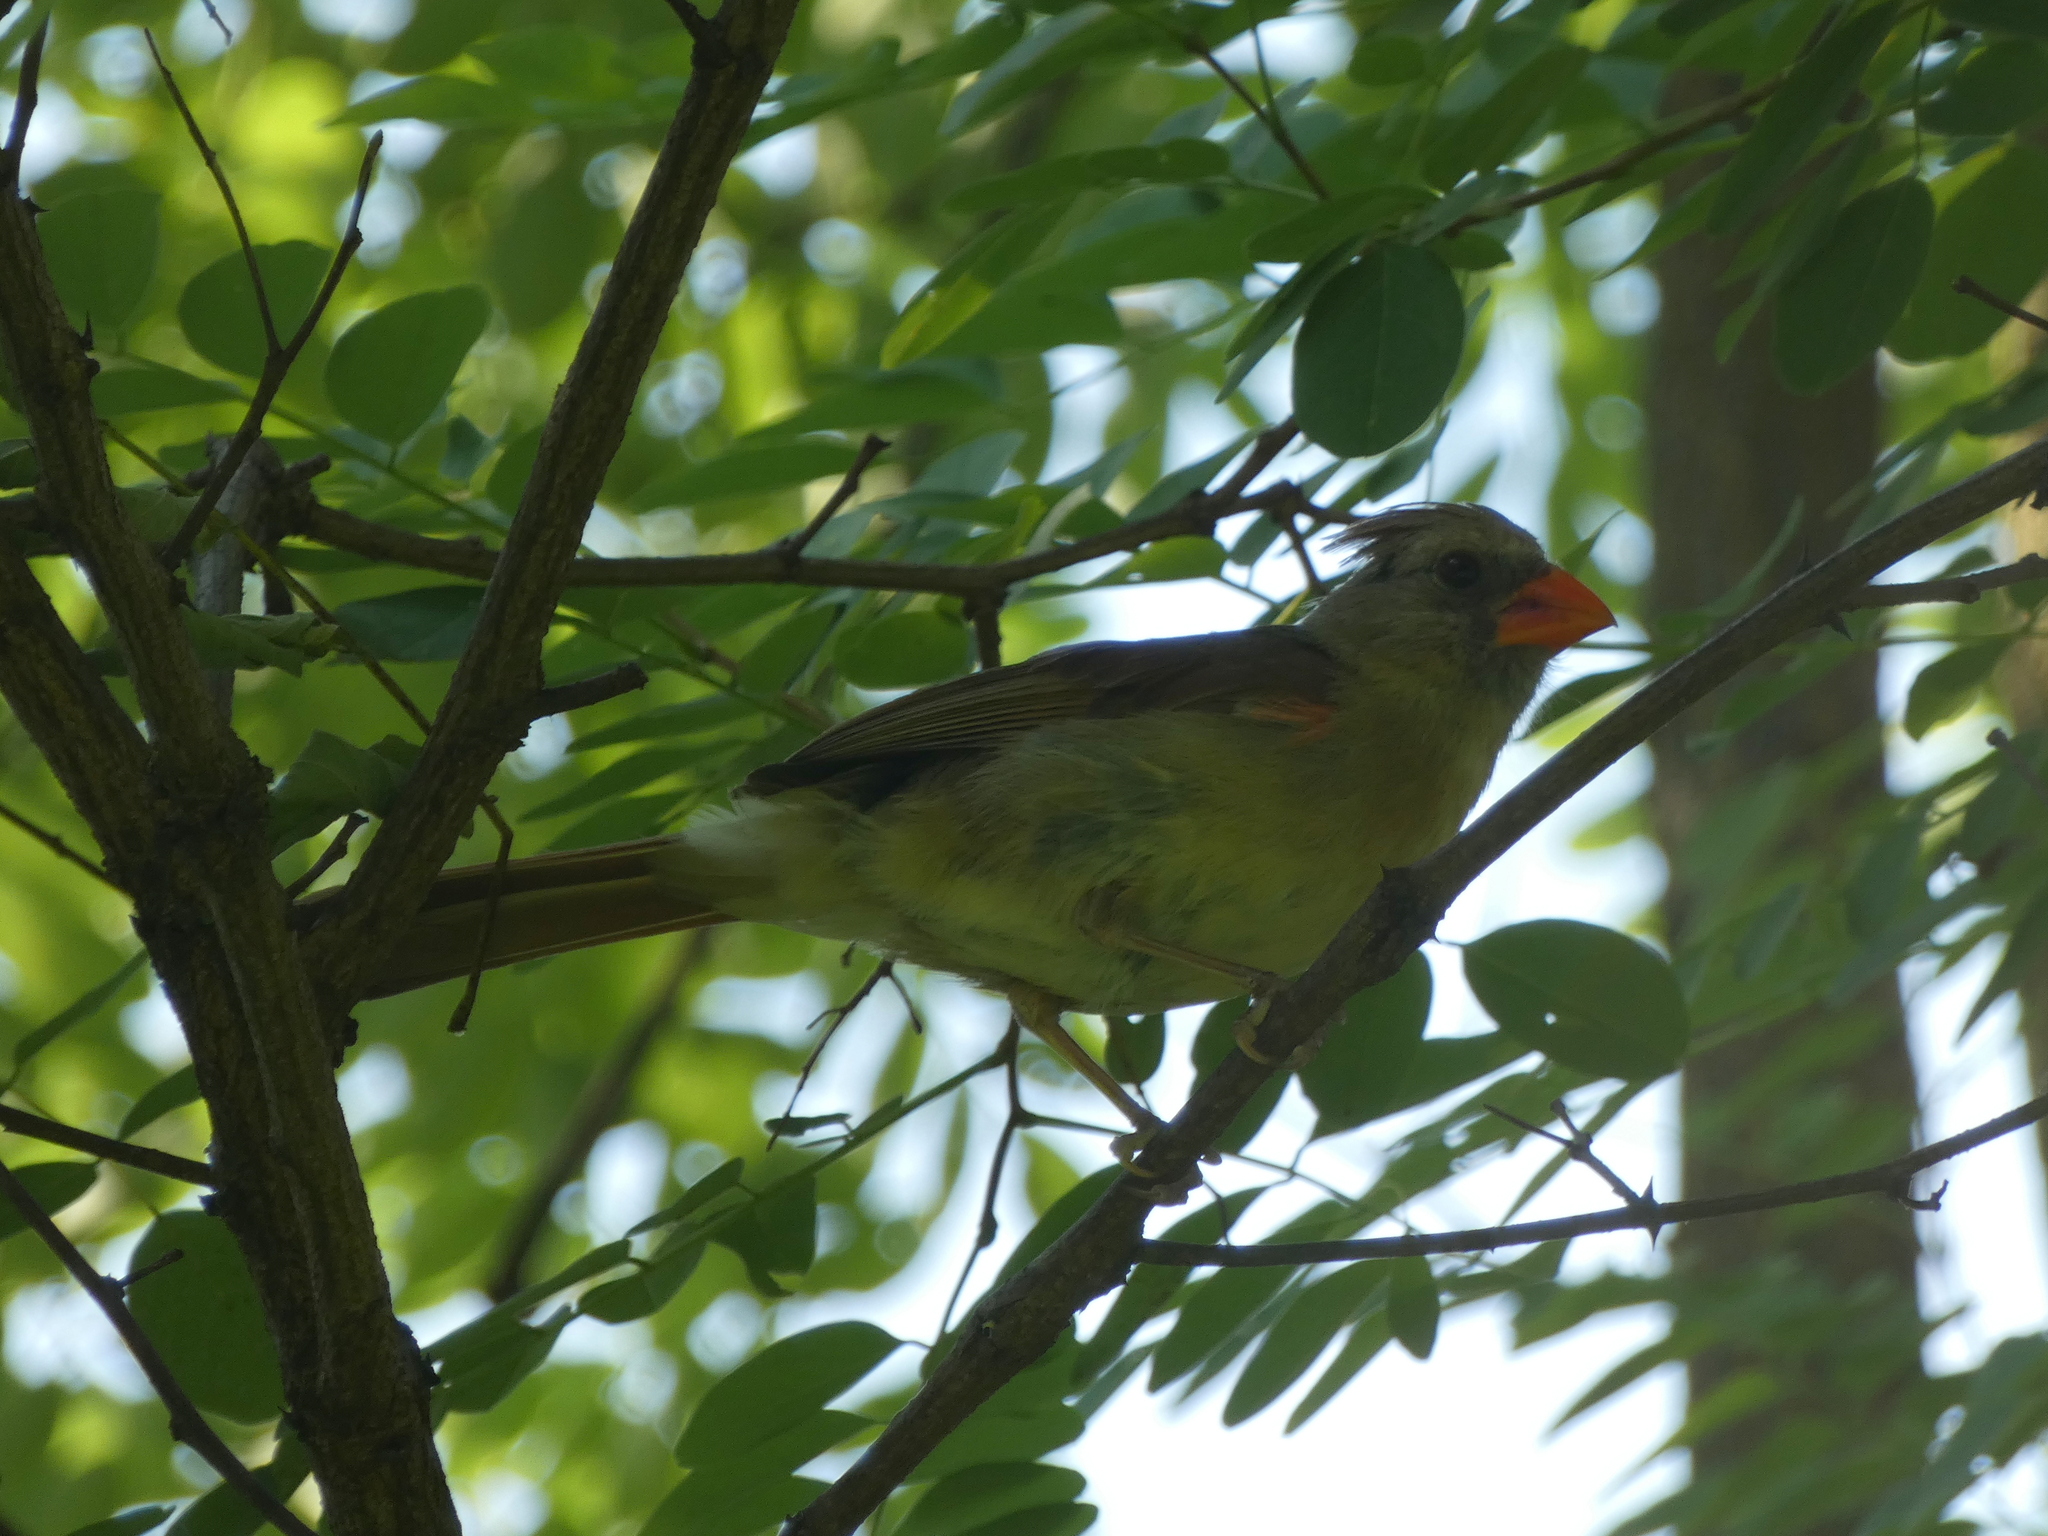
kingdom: Animalia
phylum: Chordata
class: Aves
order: Passeriformes
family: Cardinalidae
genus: Cardinalis
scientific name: Cardinalis cardinalis
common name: Northern cardinal
